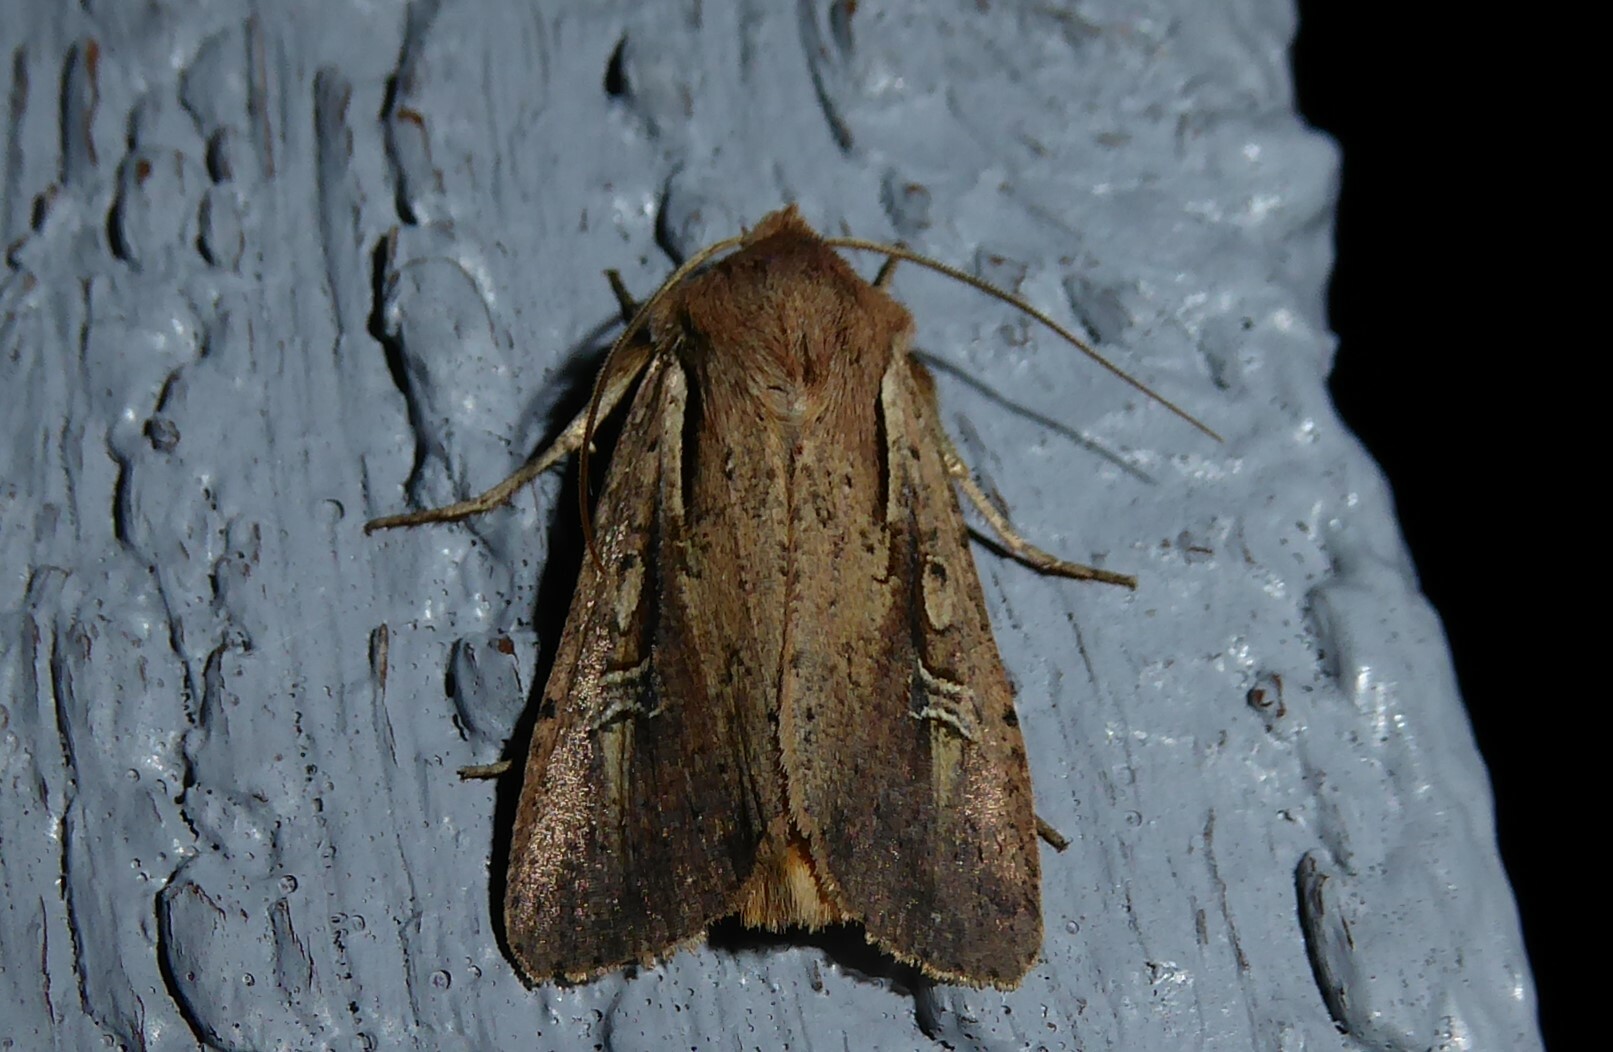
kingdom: Animalia
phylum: Arthropoda
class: Insecta
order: Lepidoptera
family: Noctuidae
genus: Ichneutica
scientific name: Ichneutica atristriga
